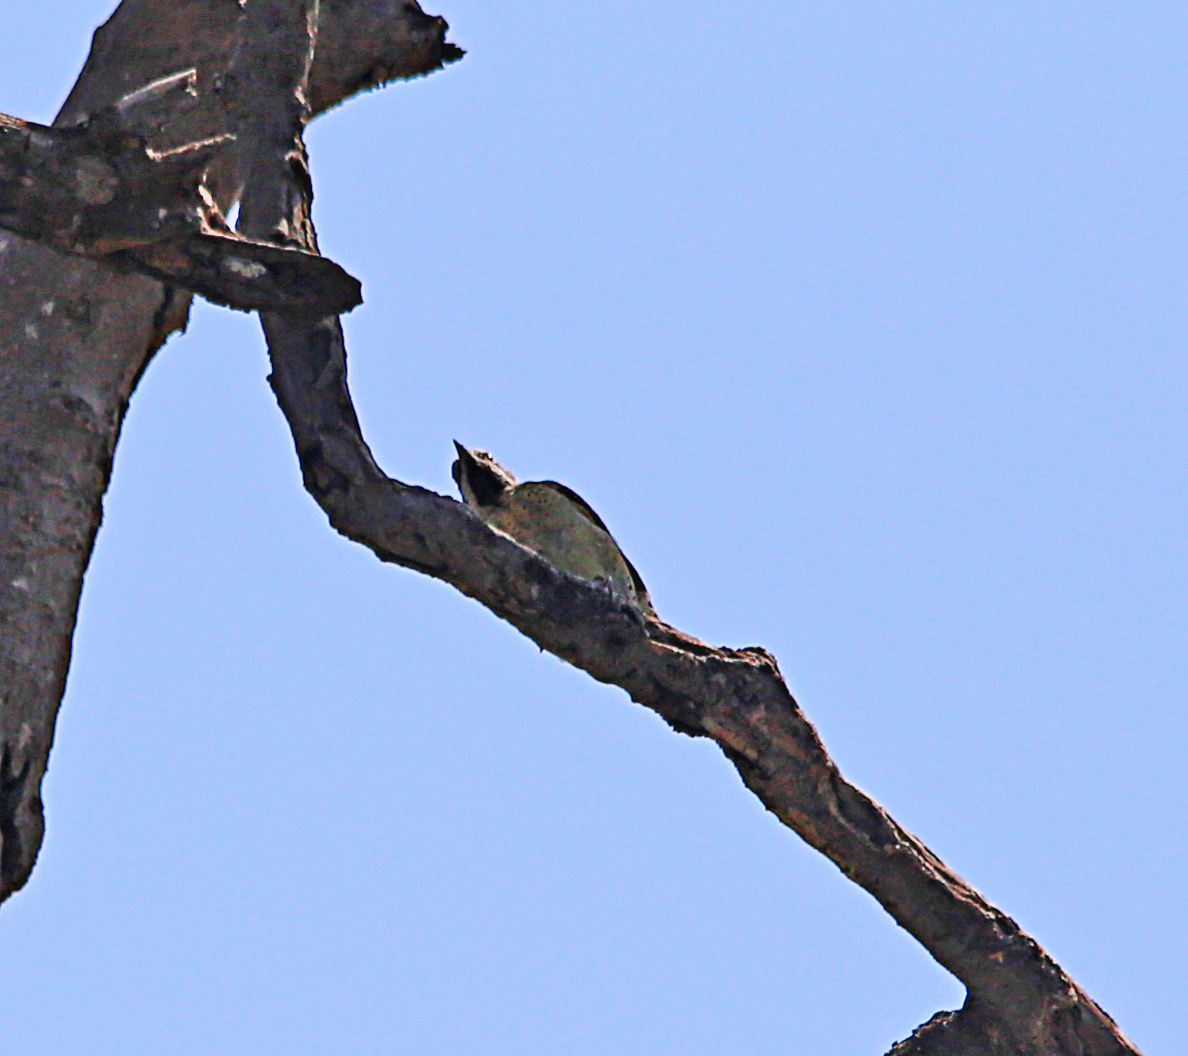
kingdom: Animalia
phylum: Chordata
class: Aves
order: Piciformes
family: Picidae
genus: Campethera
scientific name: Campethera bennettii
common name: Bennett's woodpecker
